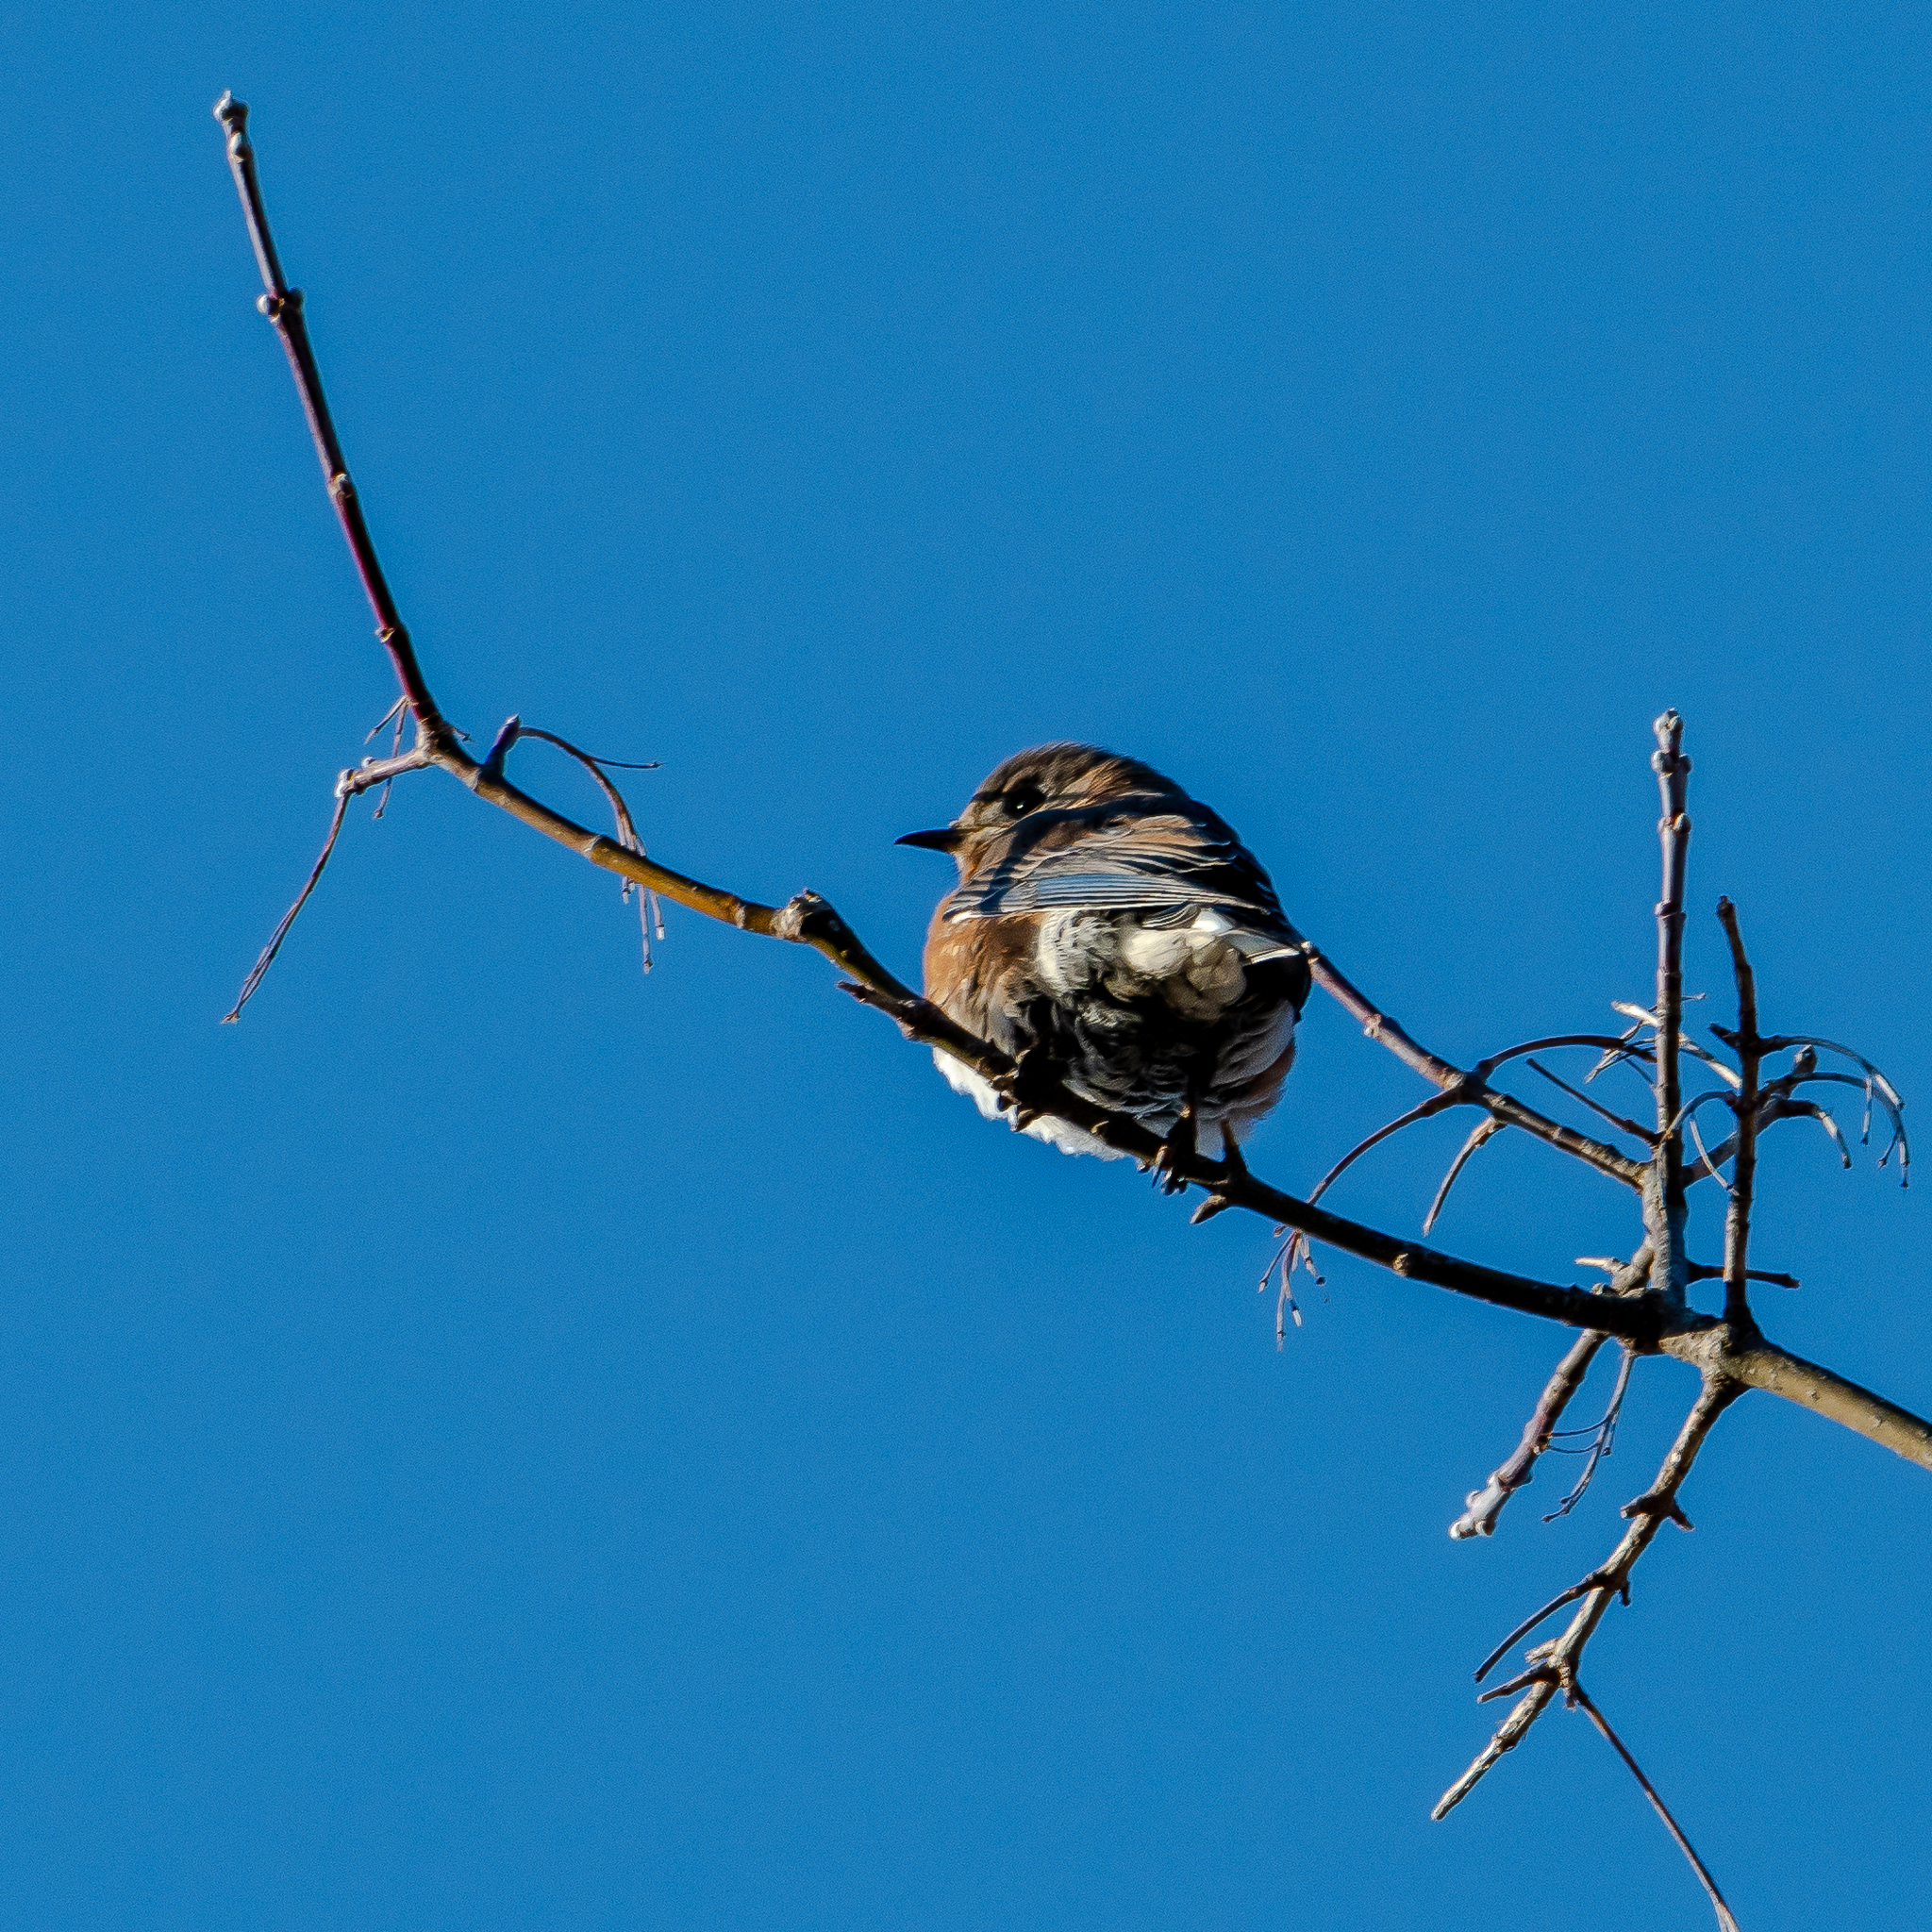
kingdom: Animalia
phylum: Chordata
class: Aves
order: Passeriformes
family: Turdidae
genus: Sialia
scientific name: Sialia sialis
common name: Eastern bluebird
